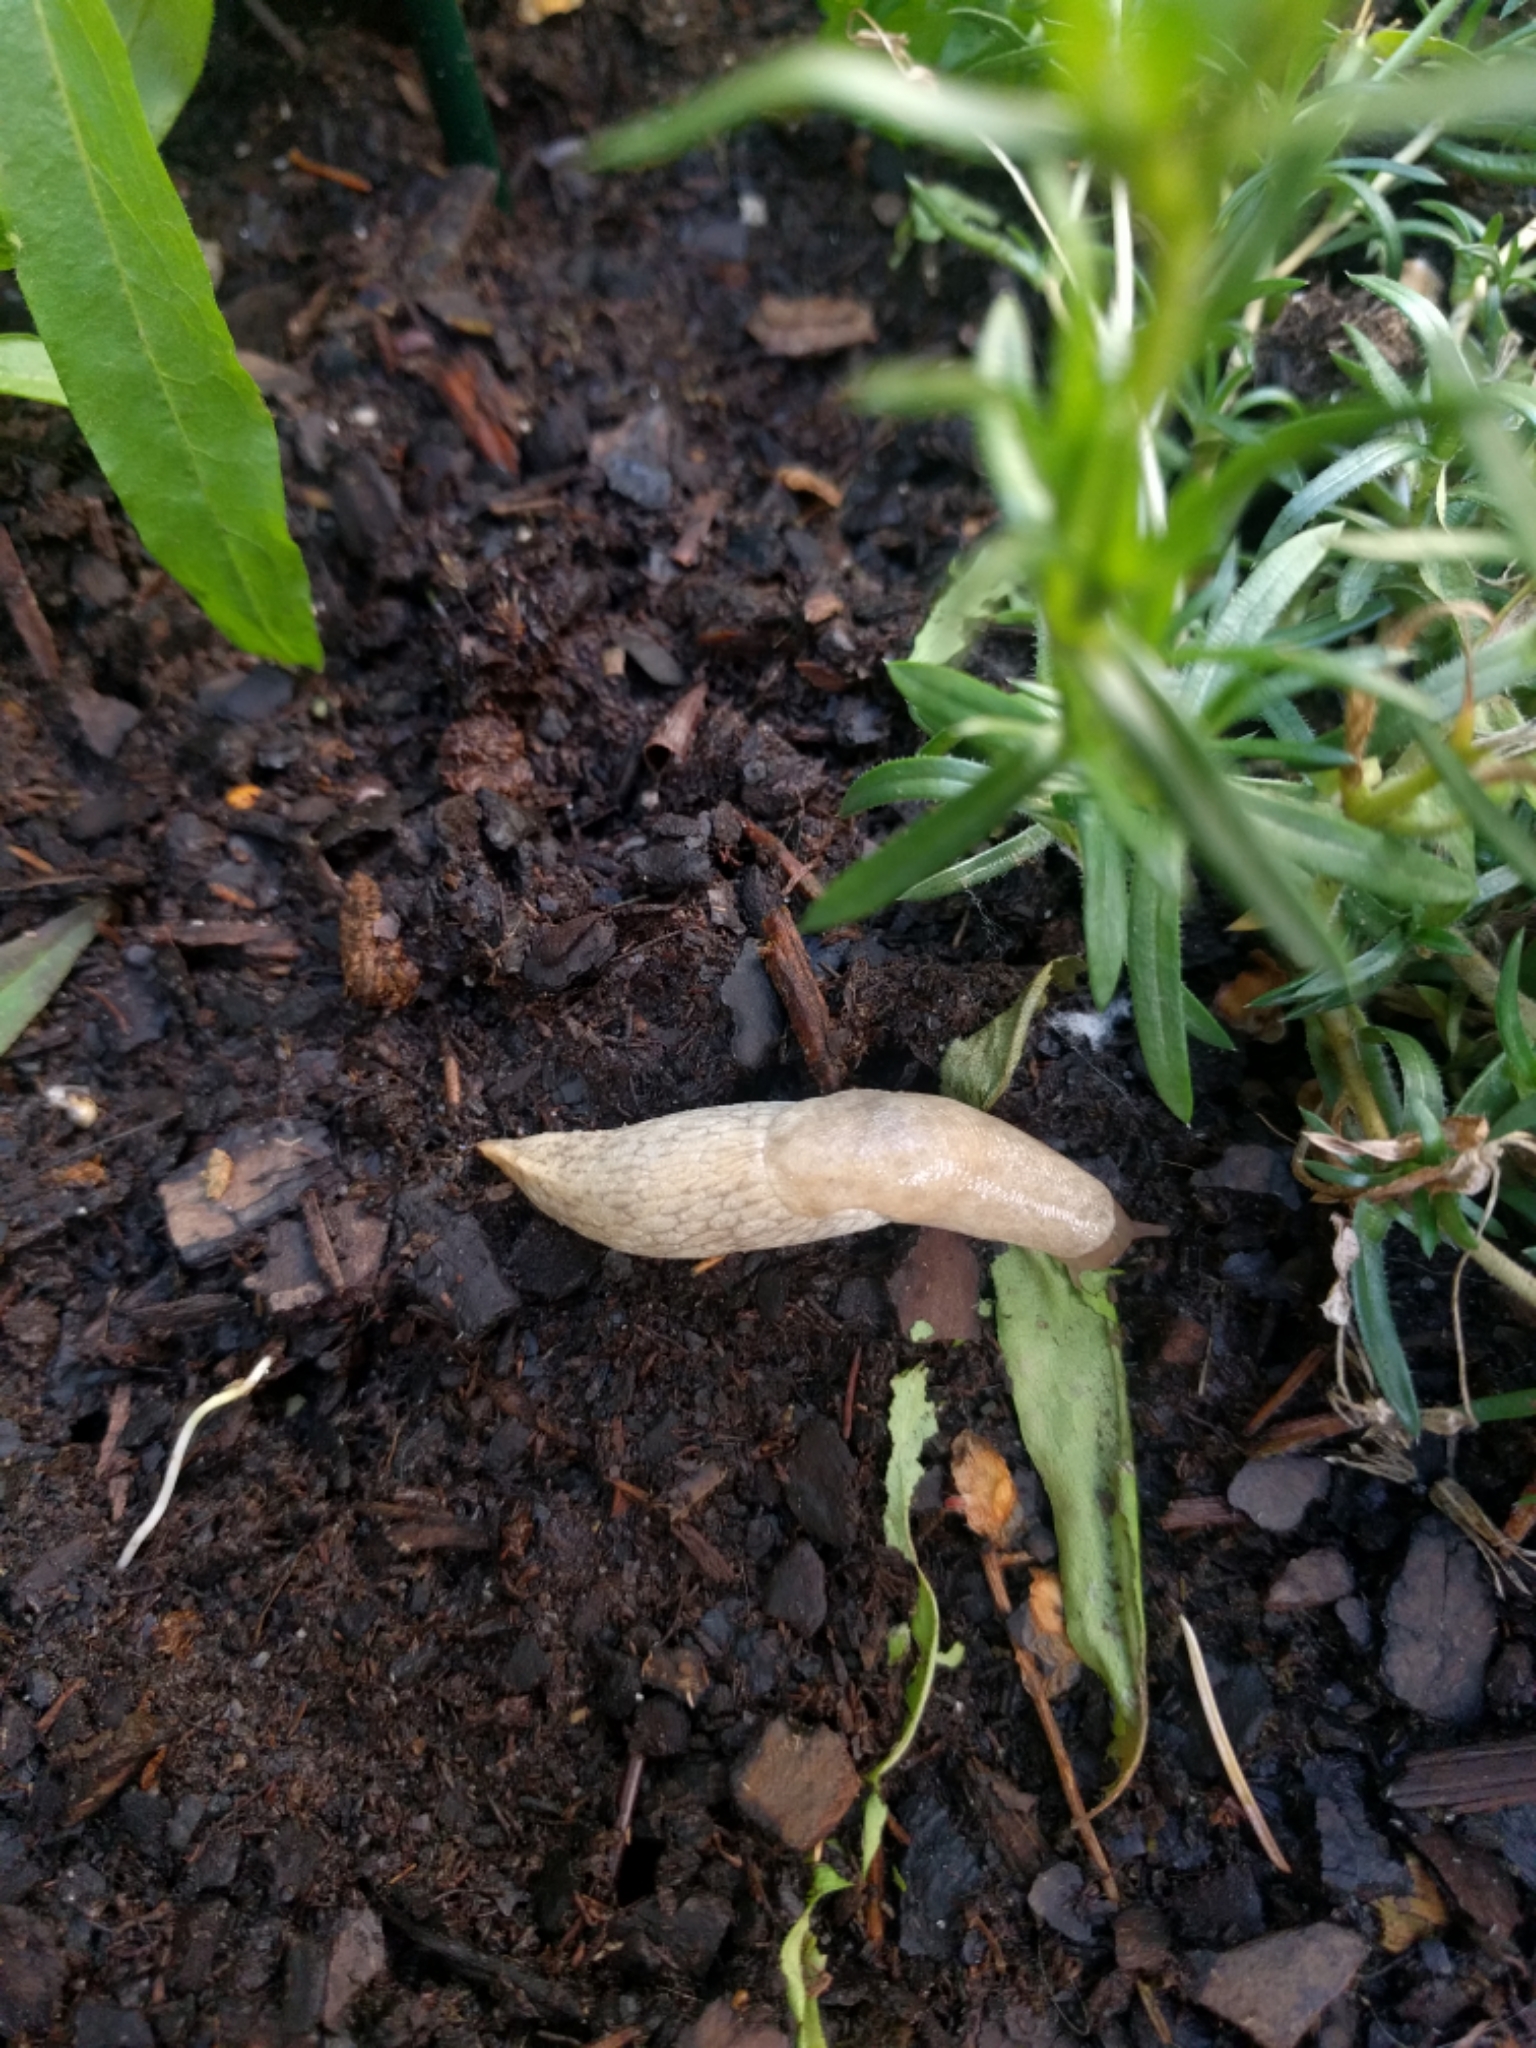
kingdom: Animalia
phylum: Mollusca
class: Gastropoda
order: Stylommatophora
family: Agriolimacidae
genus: Deroceras
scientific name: Deroceras reticulatum
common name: Gray field slug
